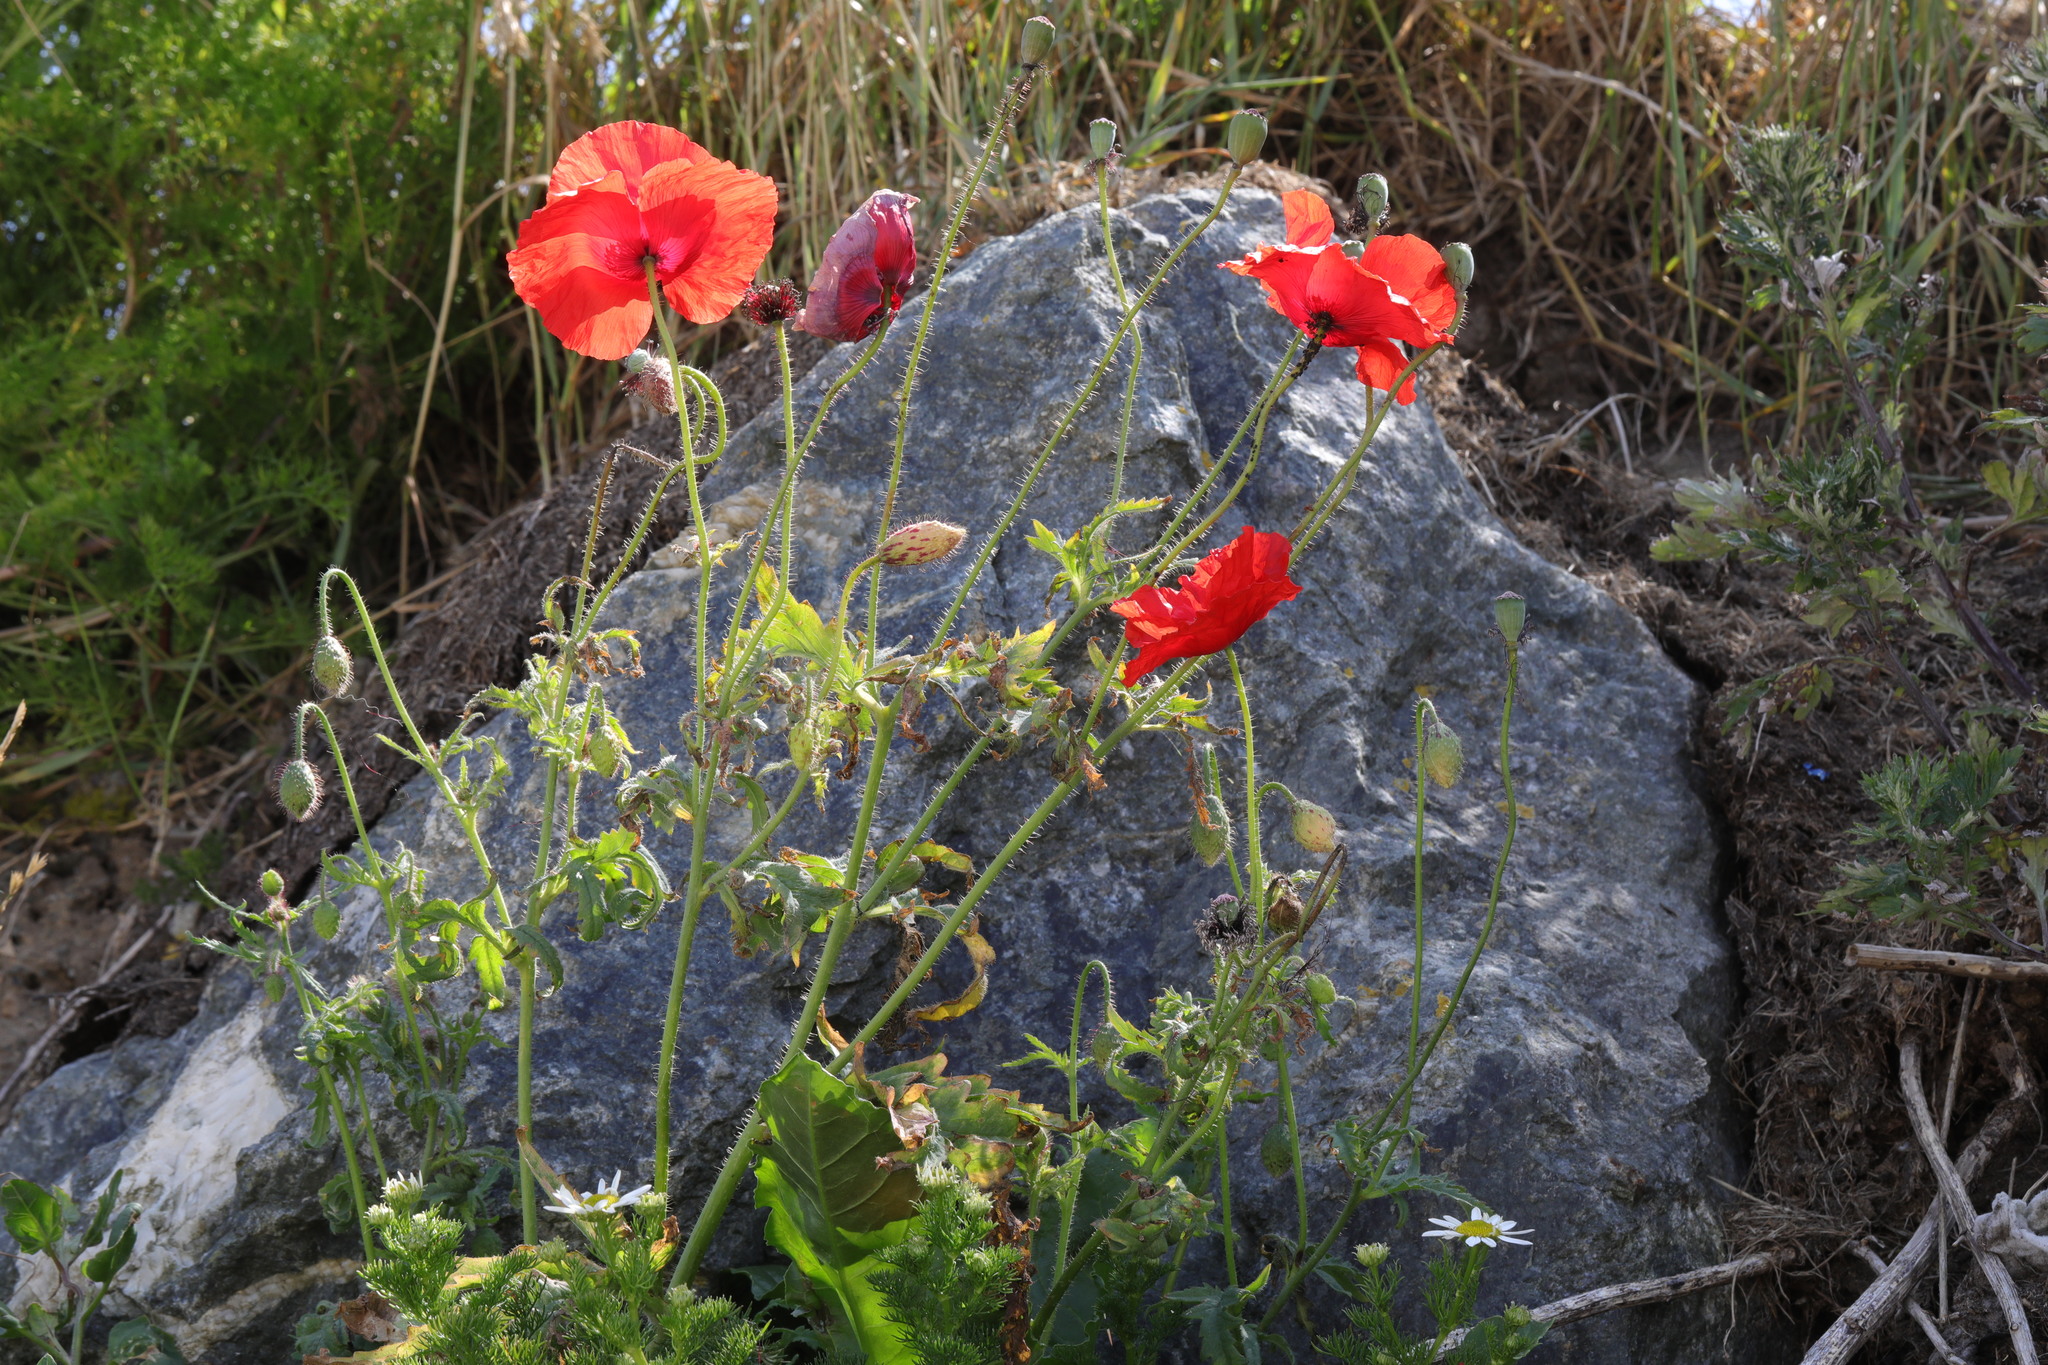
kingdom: Plantae
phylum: Tracheophyta
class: Magnoliopsida
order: Ranunculales
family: Papaveraceae
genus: Papaver
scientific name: Papaver rhoeas
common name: Corn poppy
